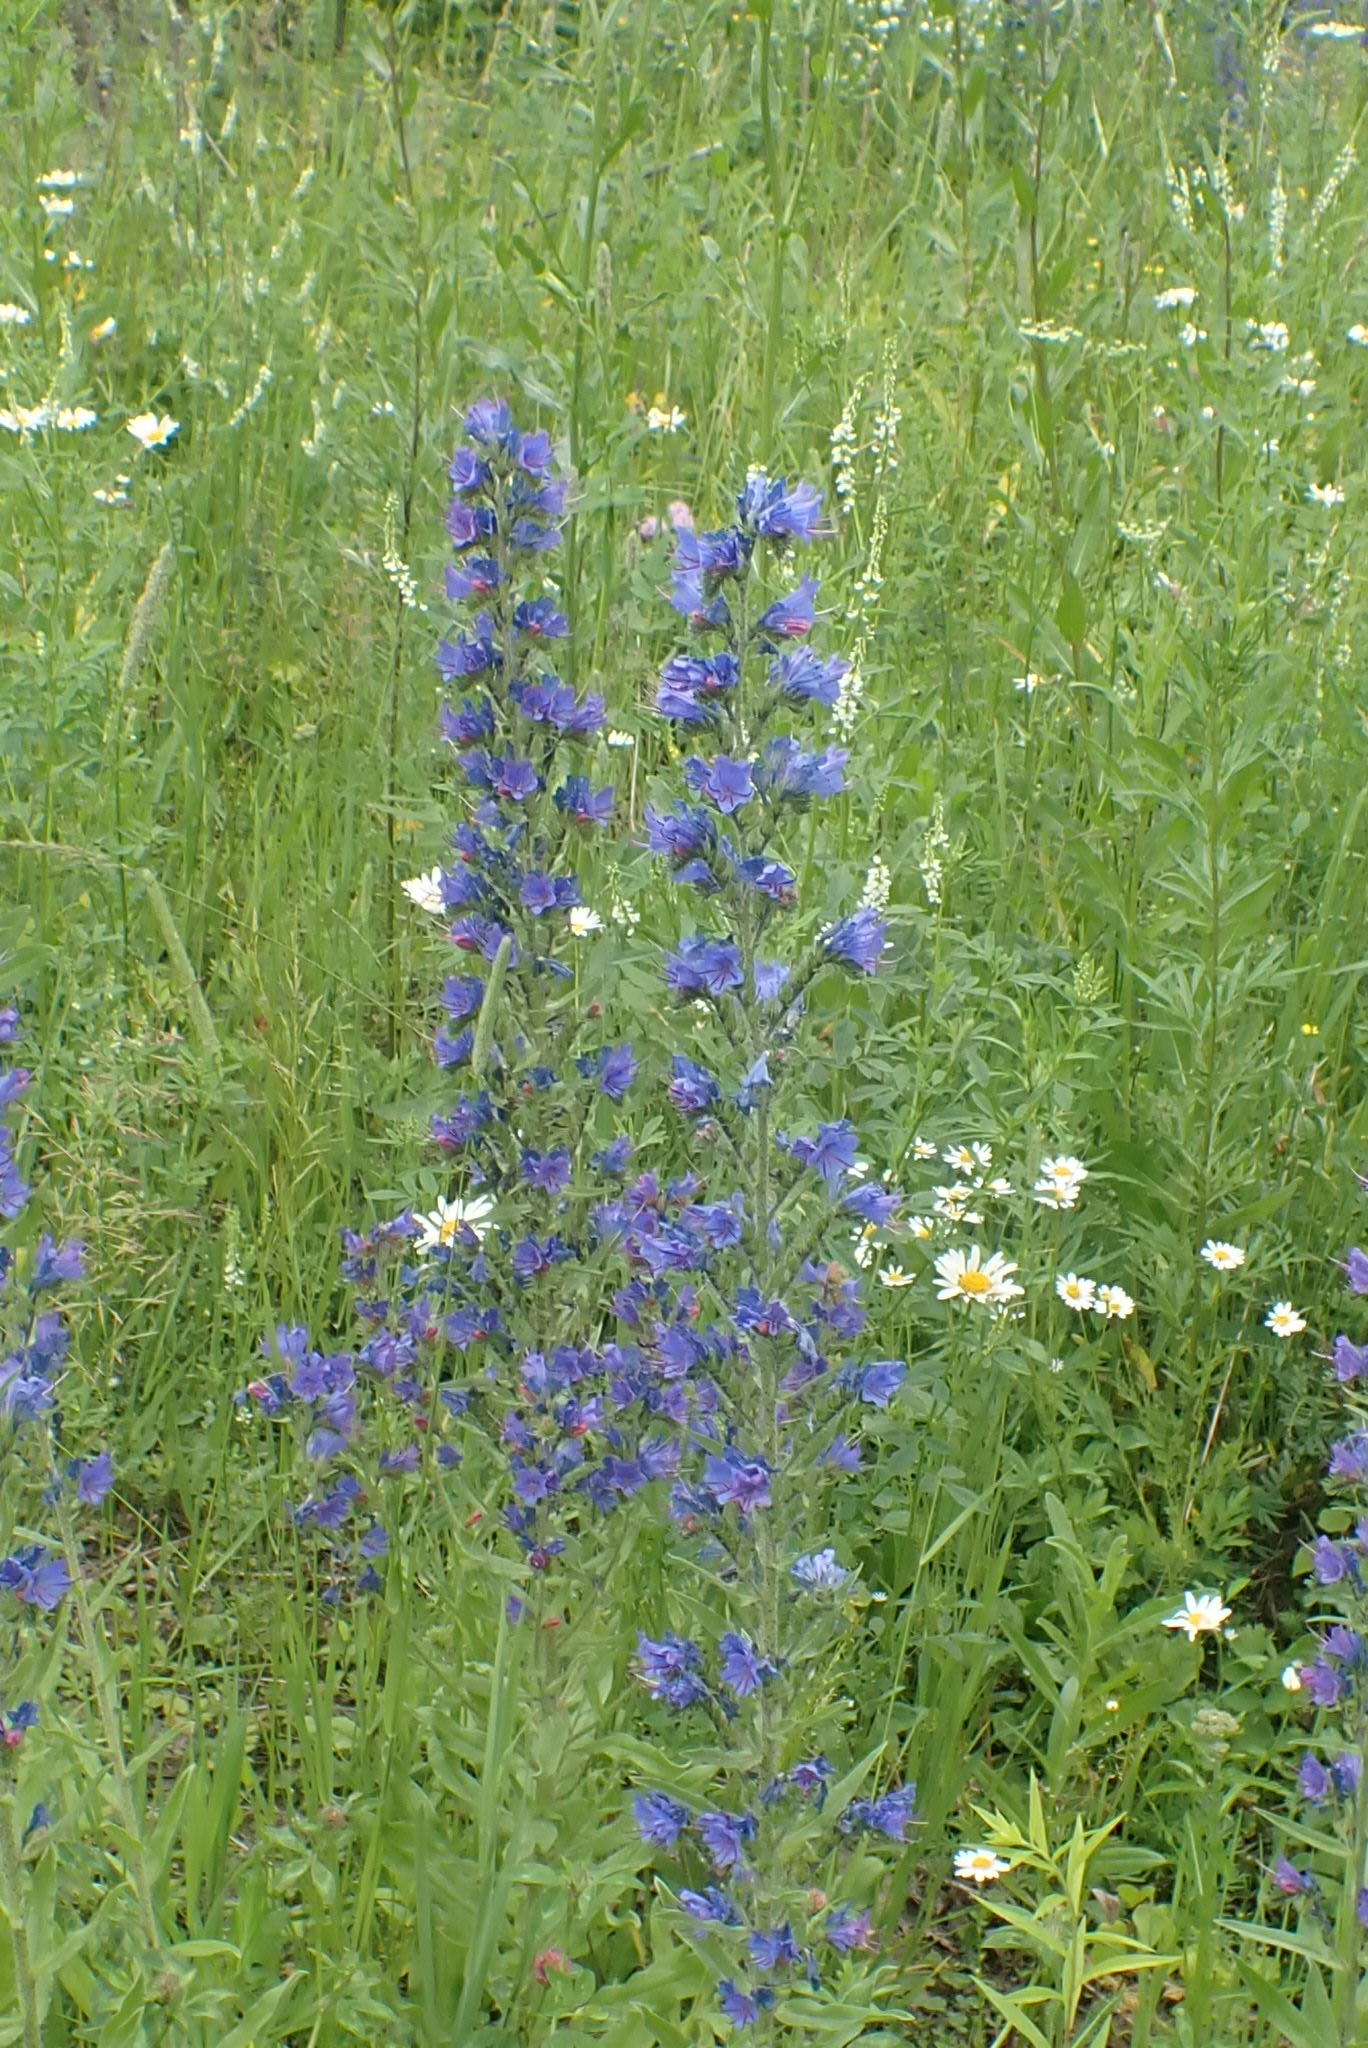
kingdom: Plantae
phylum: Tracheophyta
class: Magnoliopsida
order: Boraginales
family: Boraginaceae
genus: Echium
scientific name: Echium vulgare
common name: Common viper's bugloss
